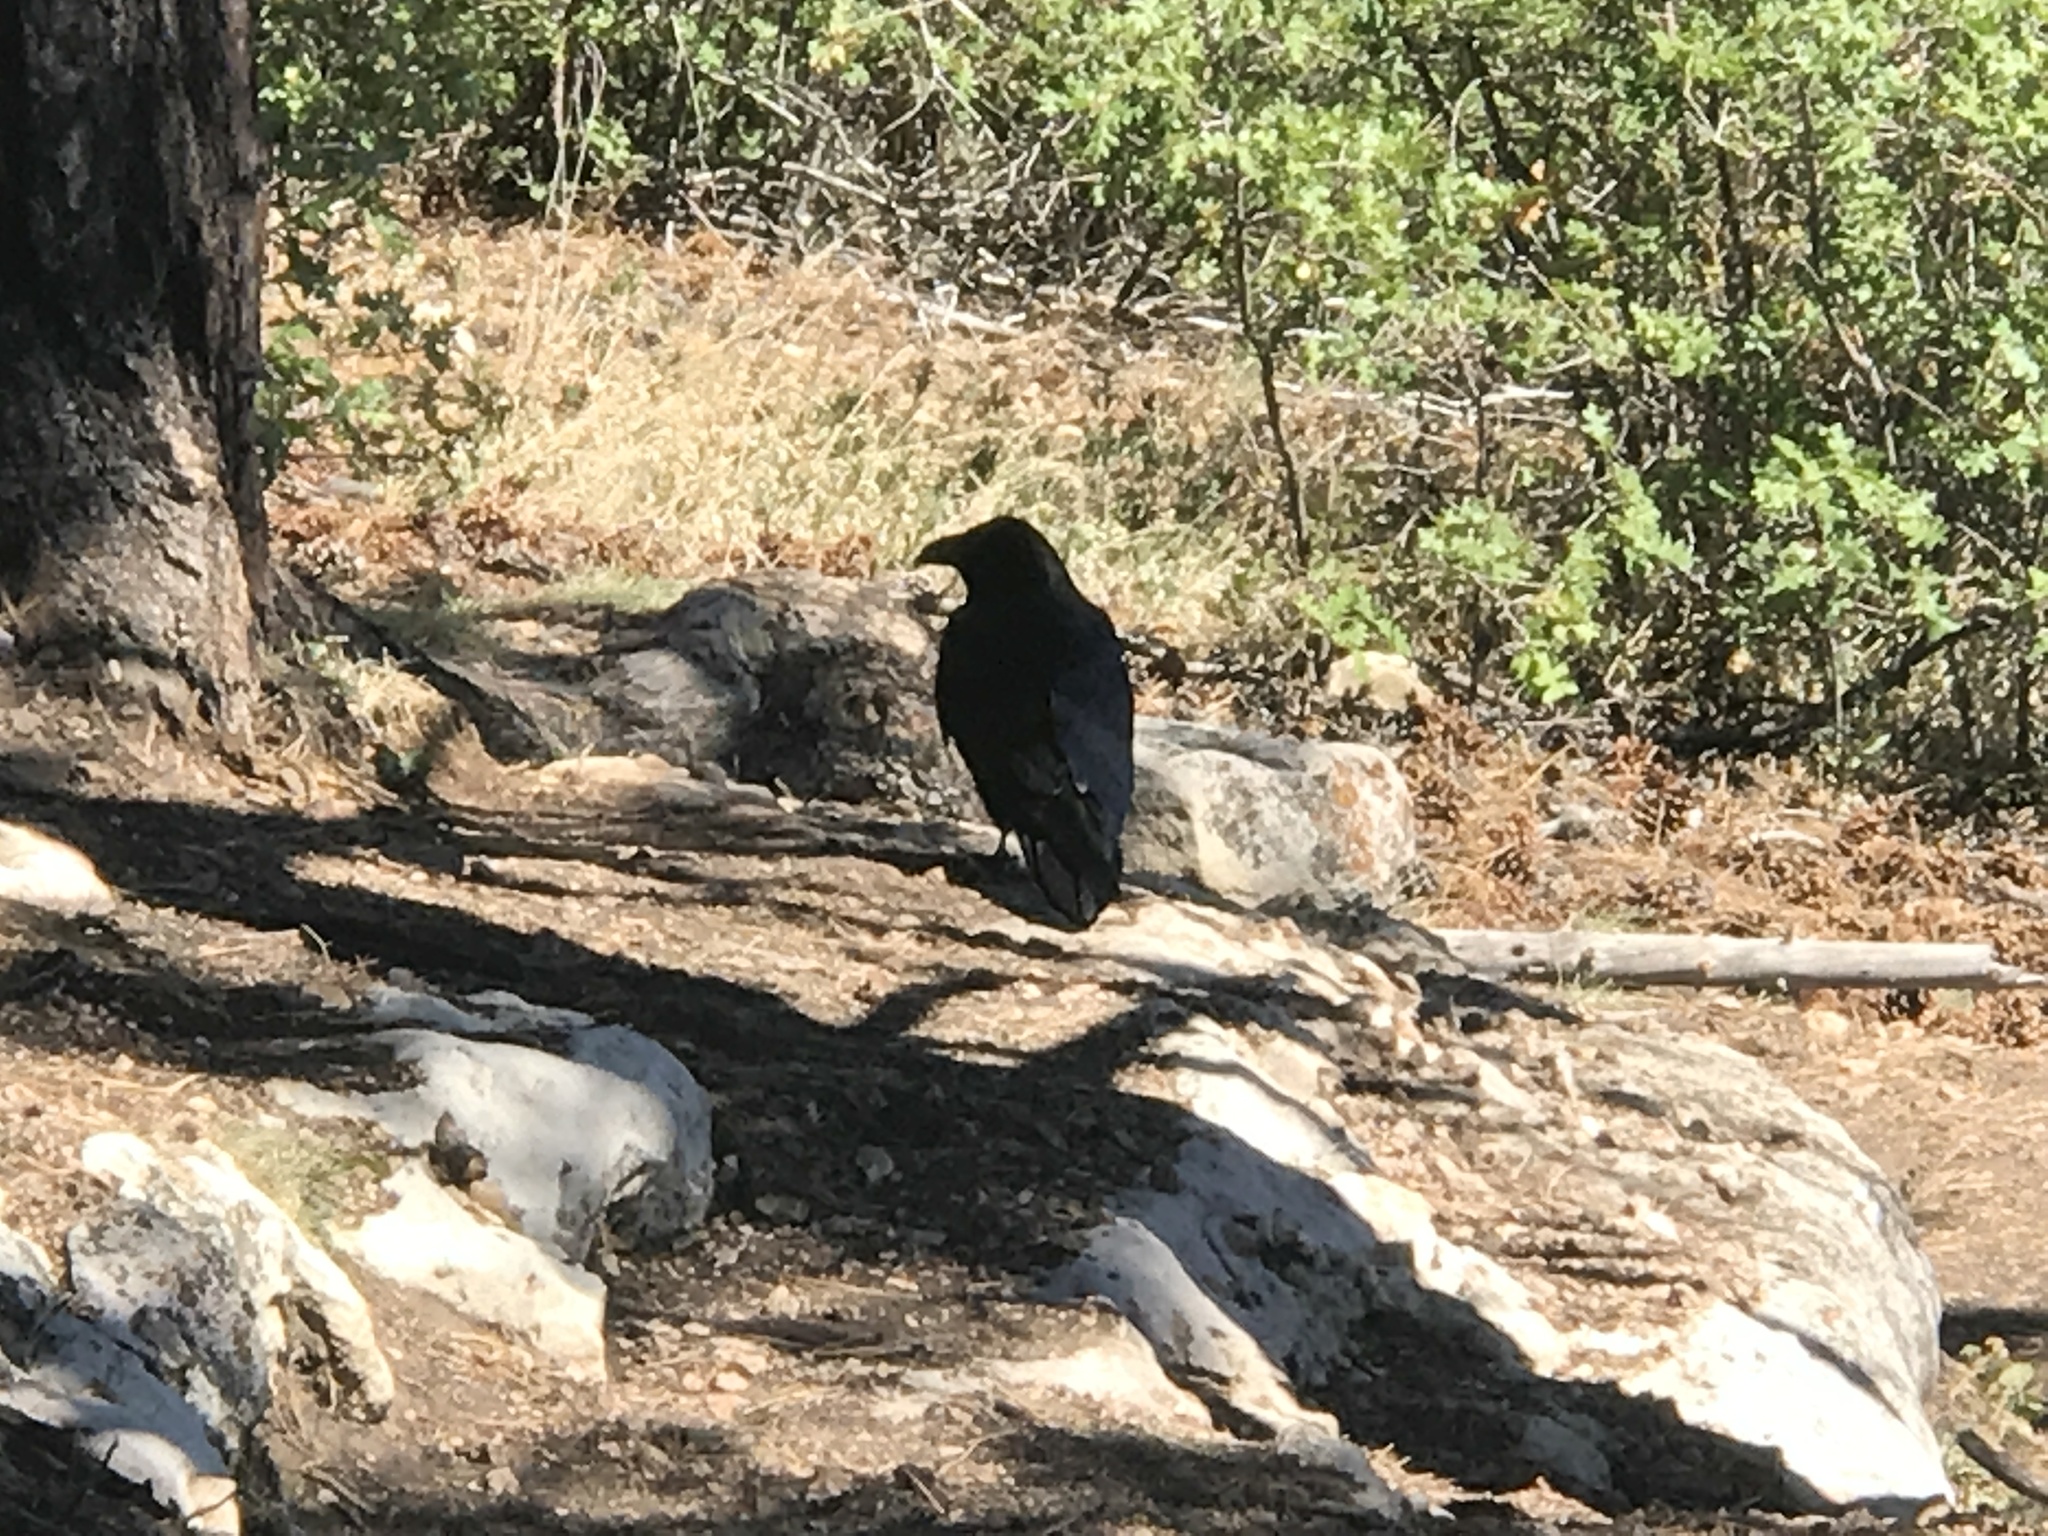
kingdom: Animalia
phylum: Chordata
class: Aves
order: Passeriformes
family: Corvidae
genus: Corvus
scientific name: Corvus corax
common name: Common raven
